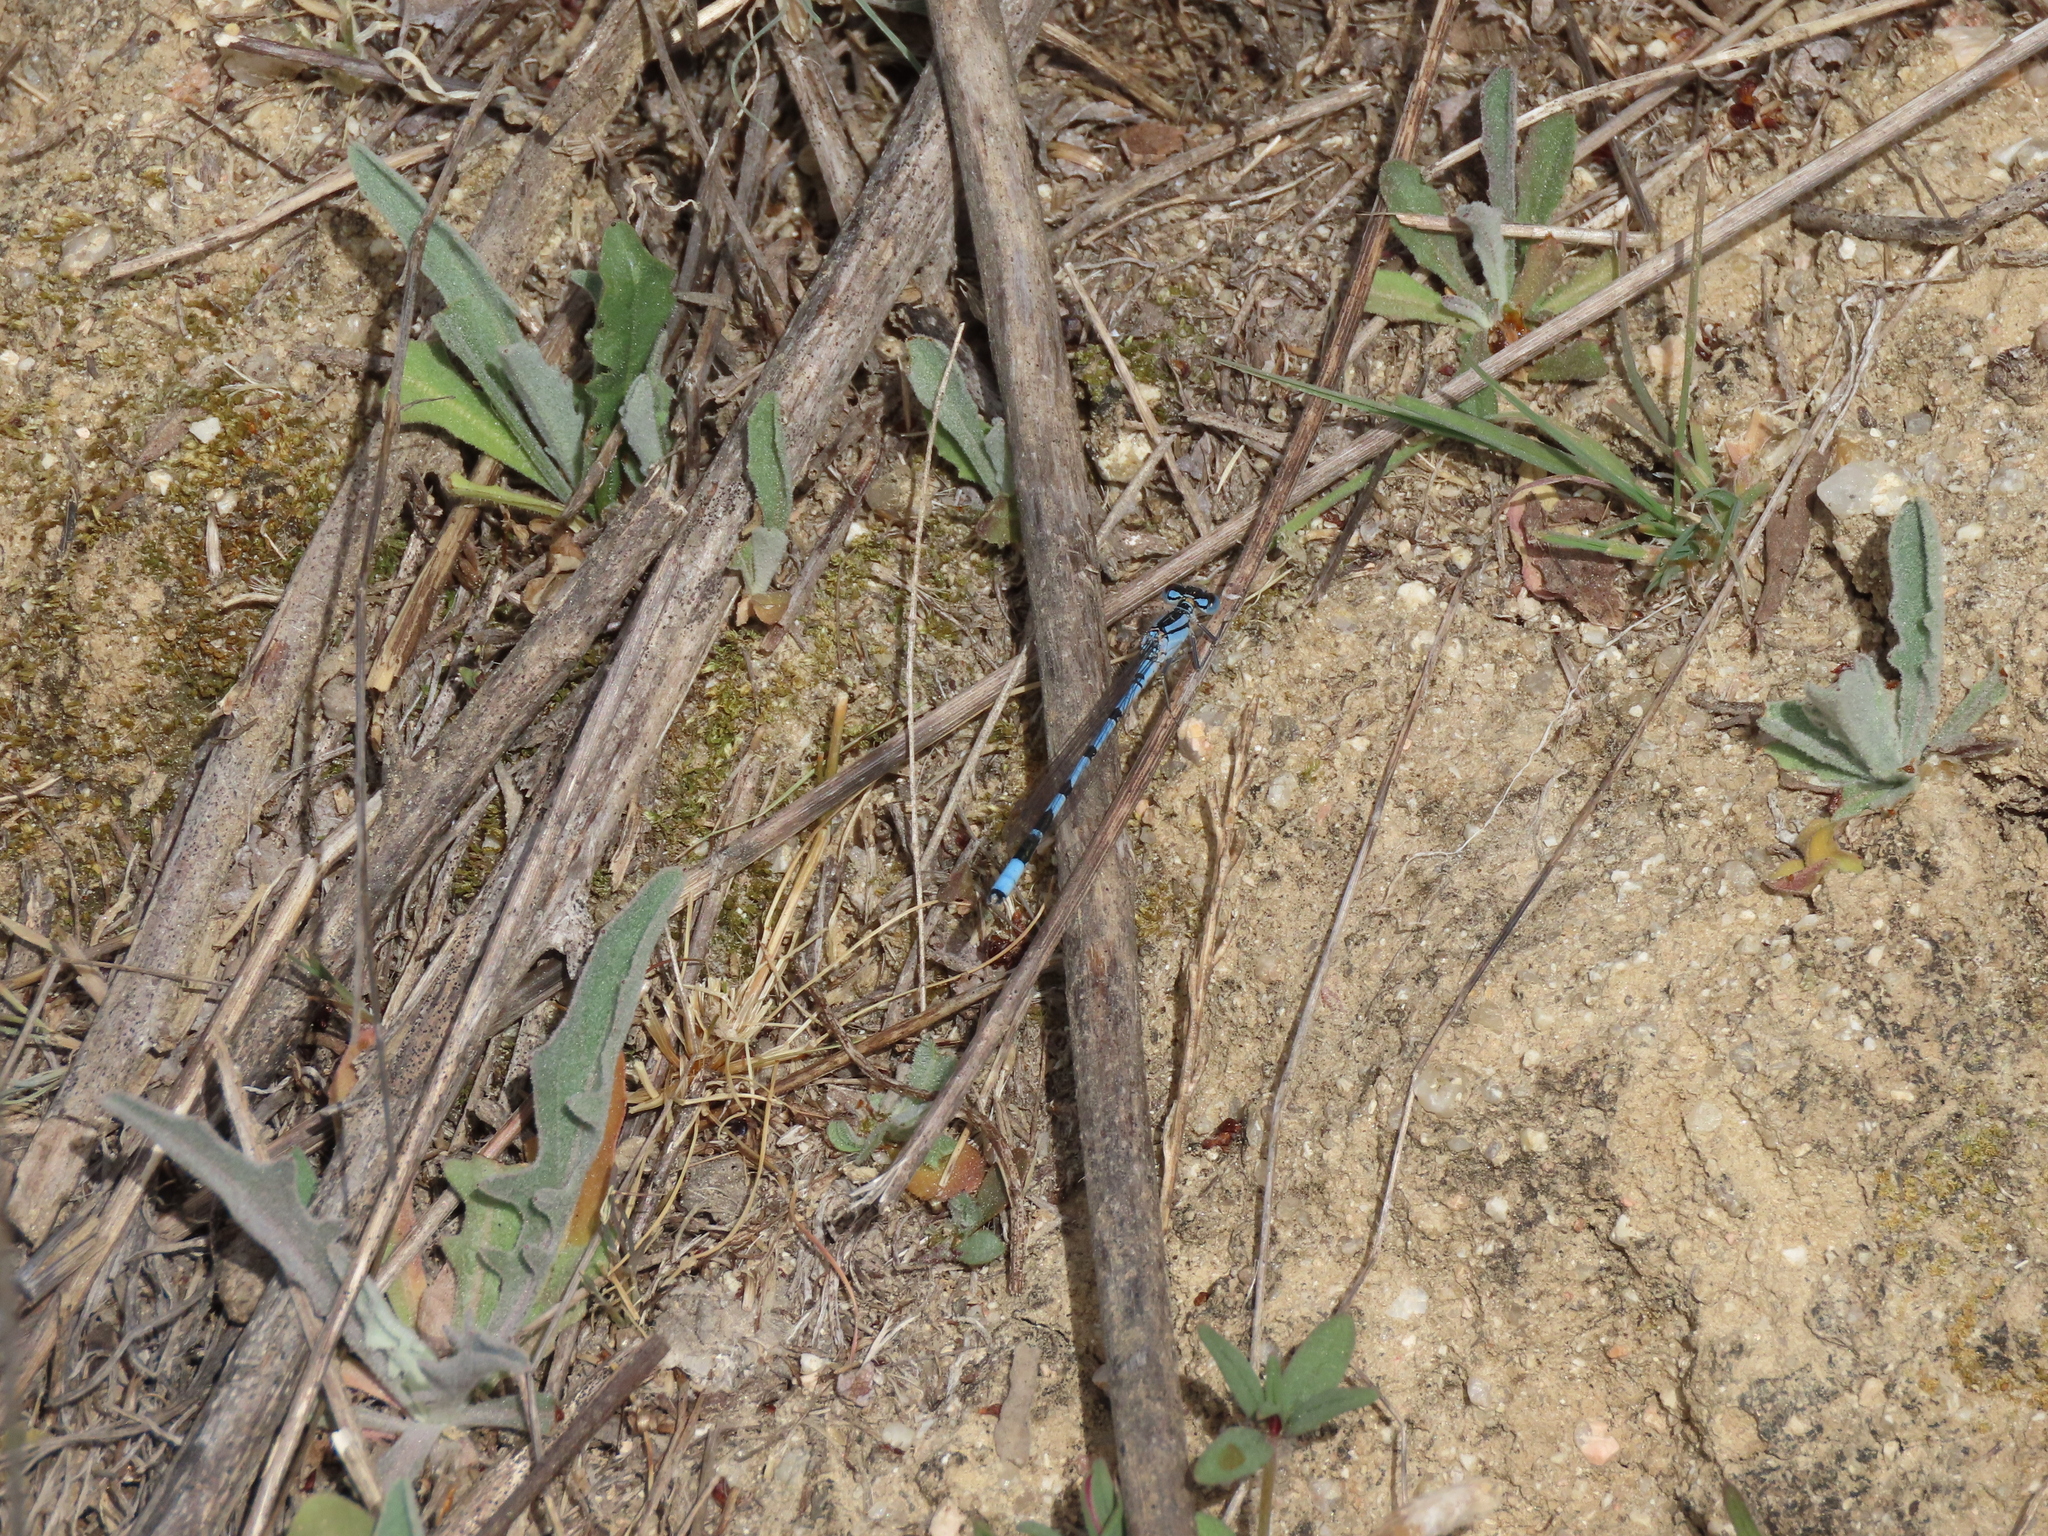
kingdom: Animalia
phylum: Arthropoda
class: Insecta
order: Odonata
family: Coenagrionidae
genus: Enallagma
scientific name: Enallagma cyathigerum
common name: Common blue damselfly
